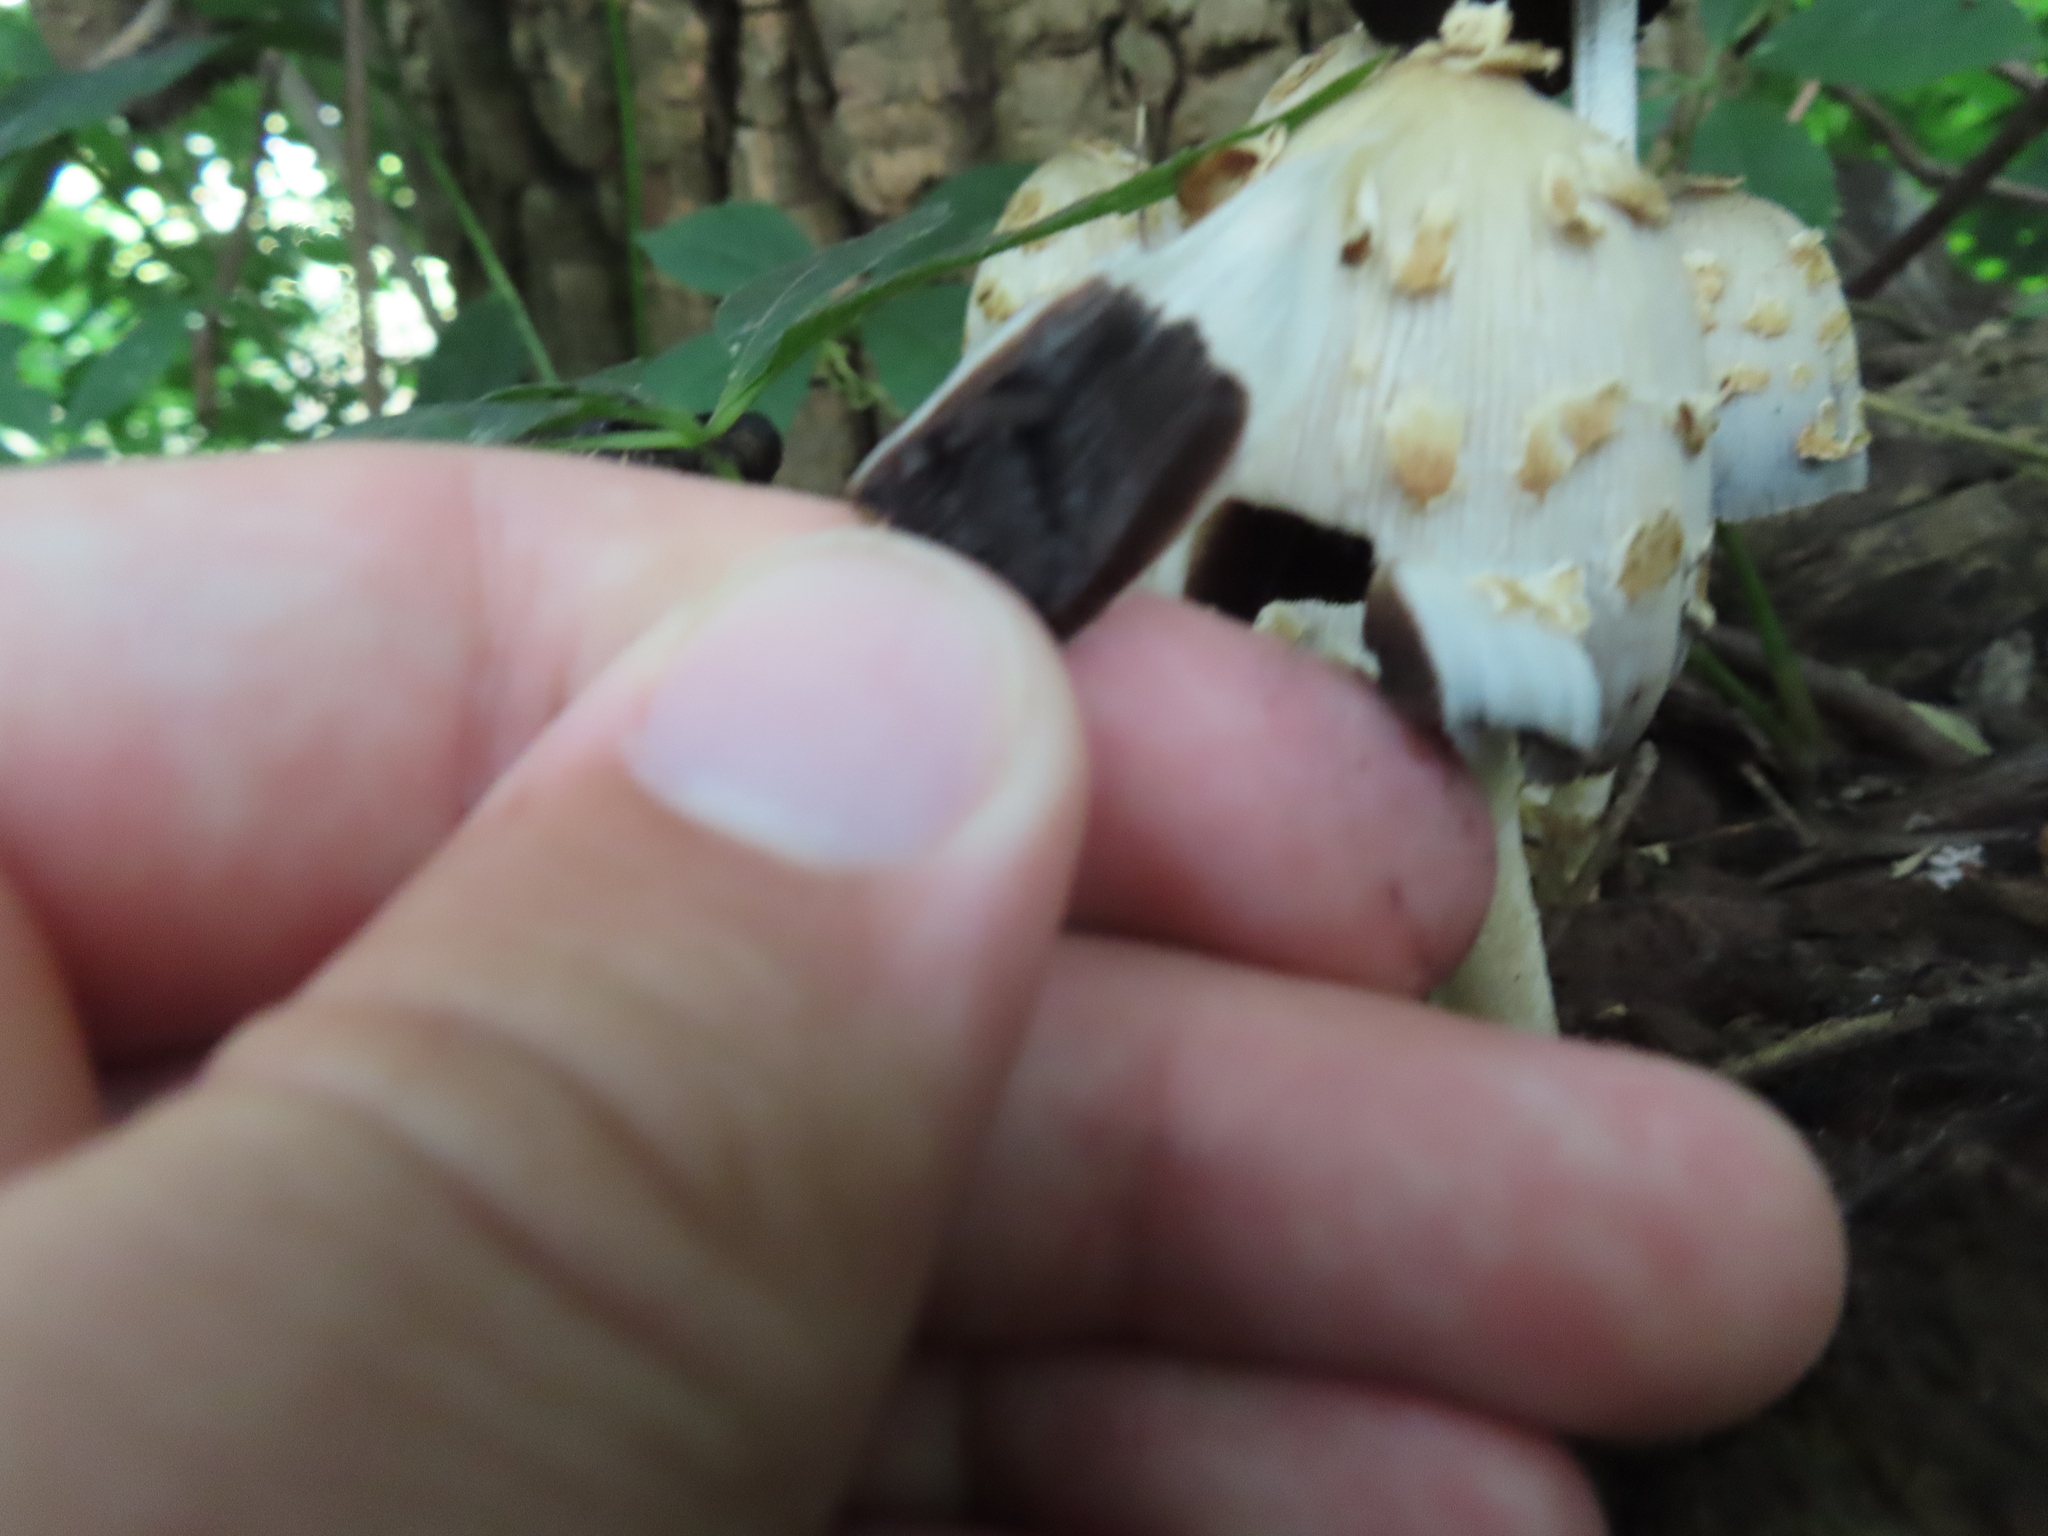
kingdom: Fungi
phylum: Basidiomycota
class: Agaricomycetes
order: Agaricales
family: Psathyrellaceae
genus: Coprinopsis
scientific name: Coprinopsis variegata
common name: Scaly ink cap
